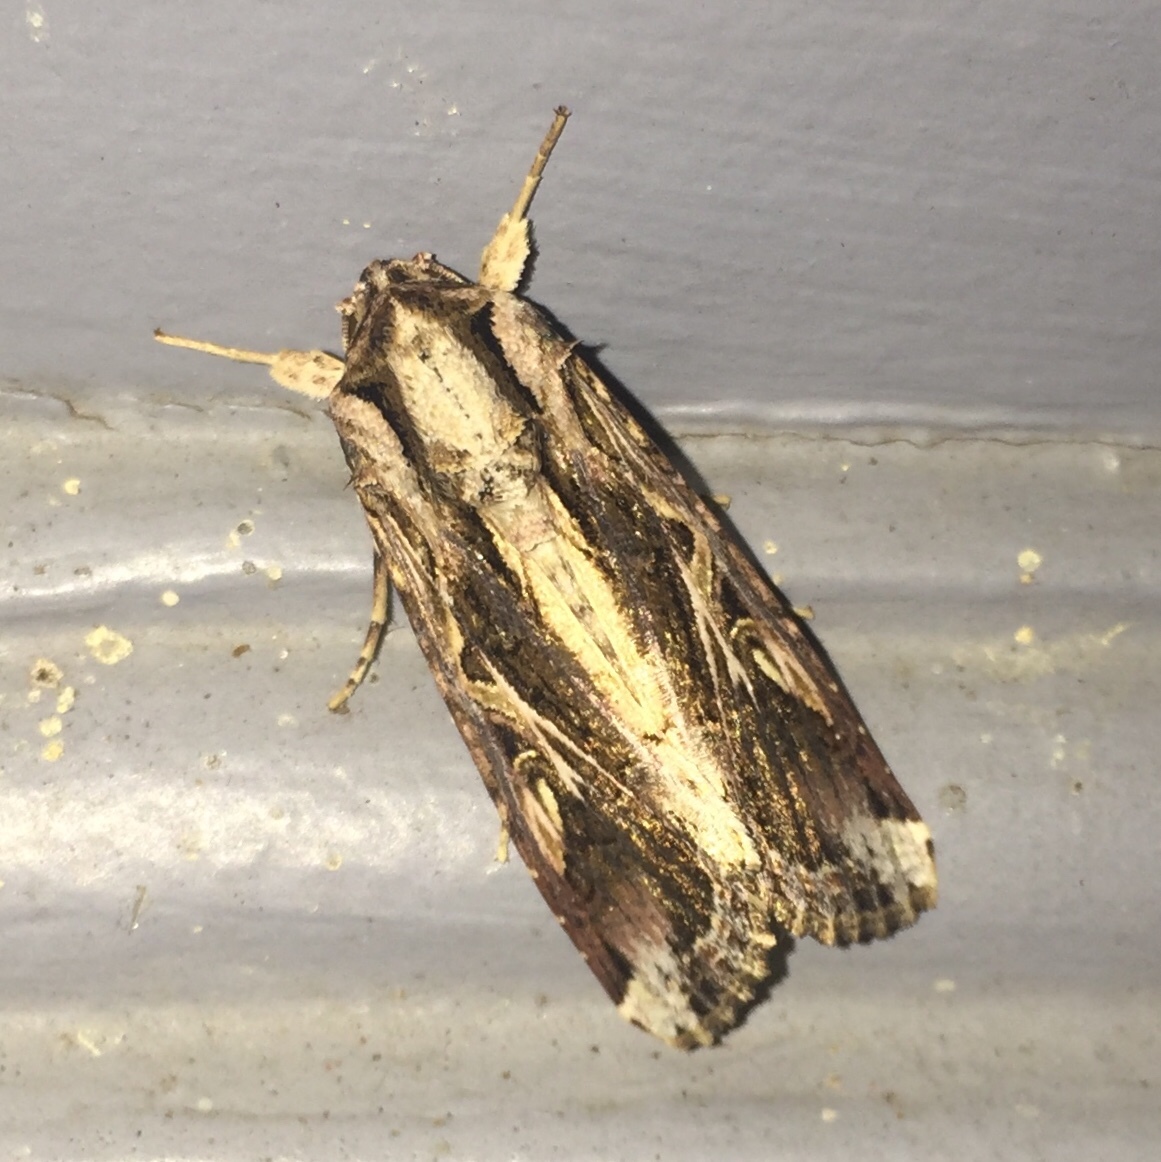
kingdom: Animalia
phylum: Arthropoda
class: Insecta
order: Lepidoptera
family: Noctuidae
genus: Spodoptera
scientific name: Spodoptera dolichos
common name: Sweetpotato armyworm
